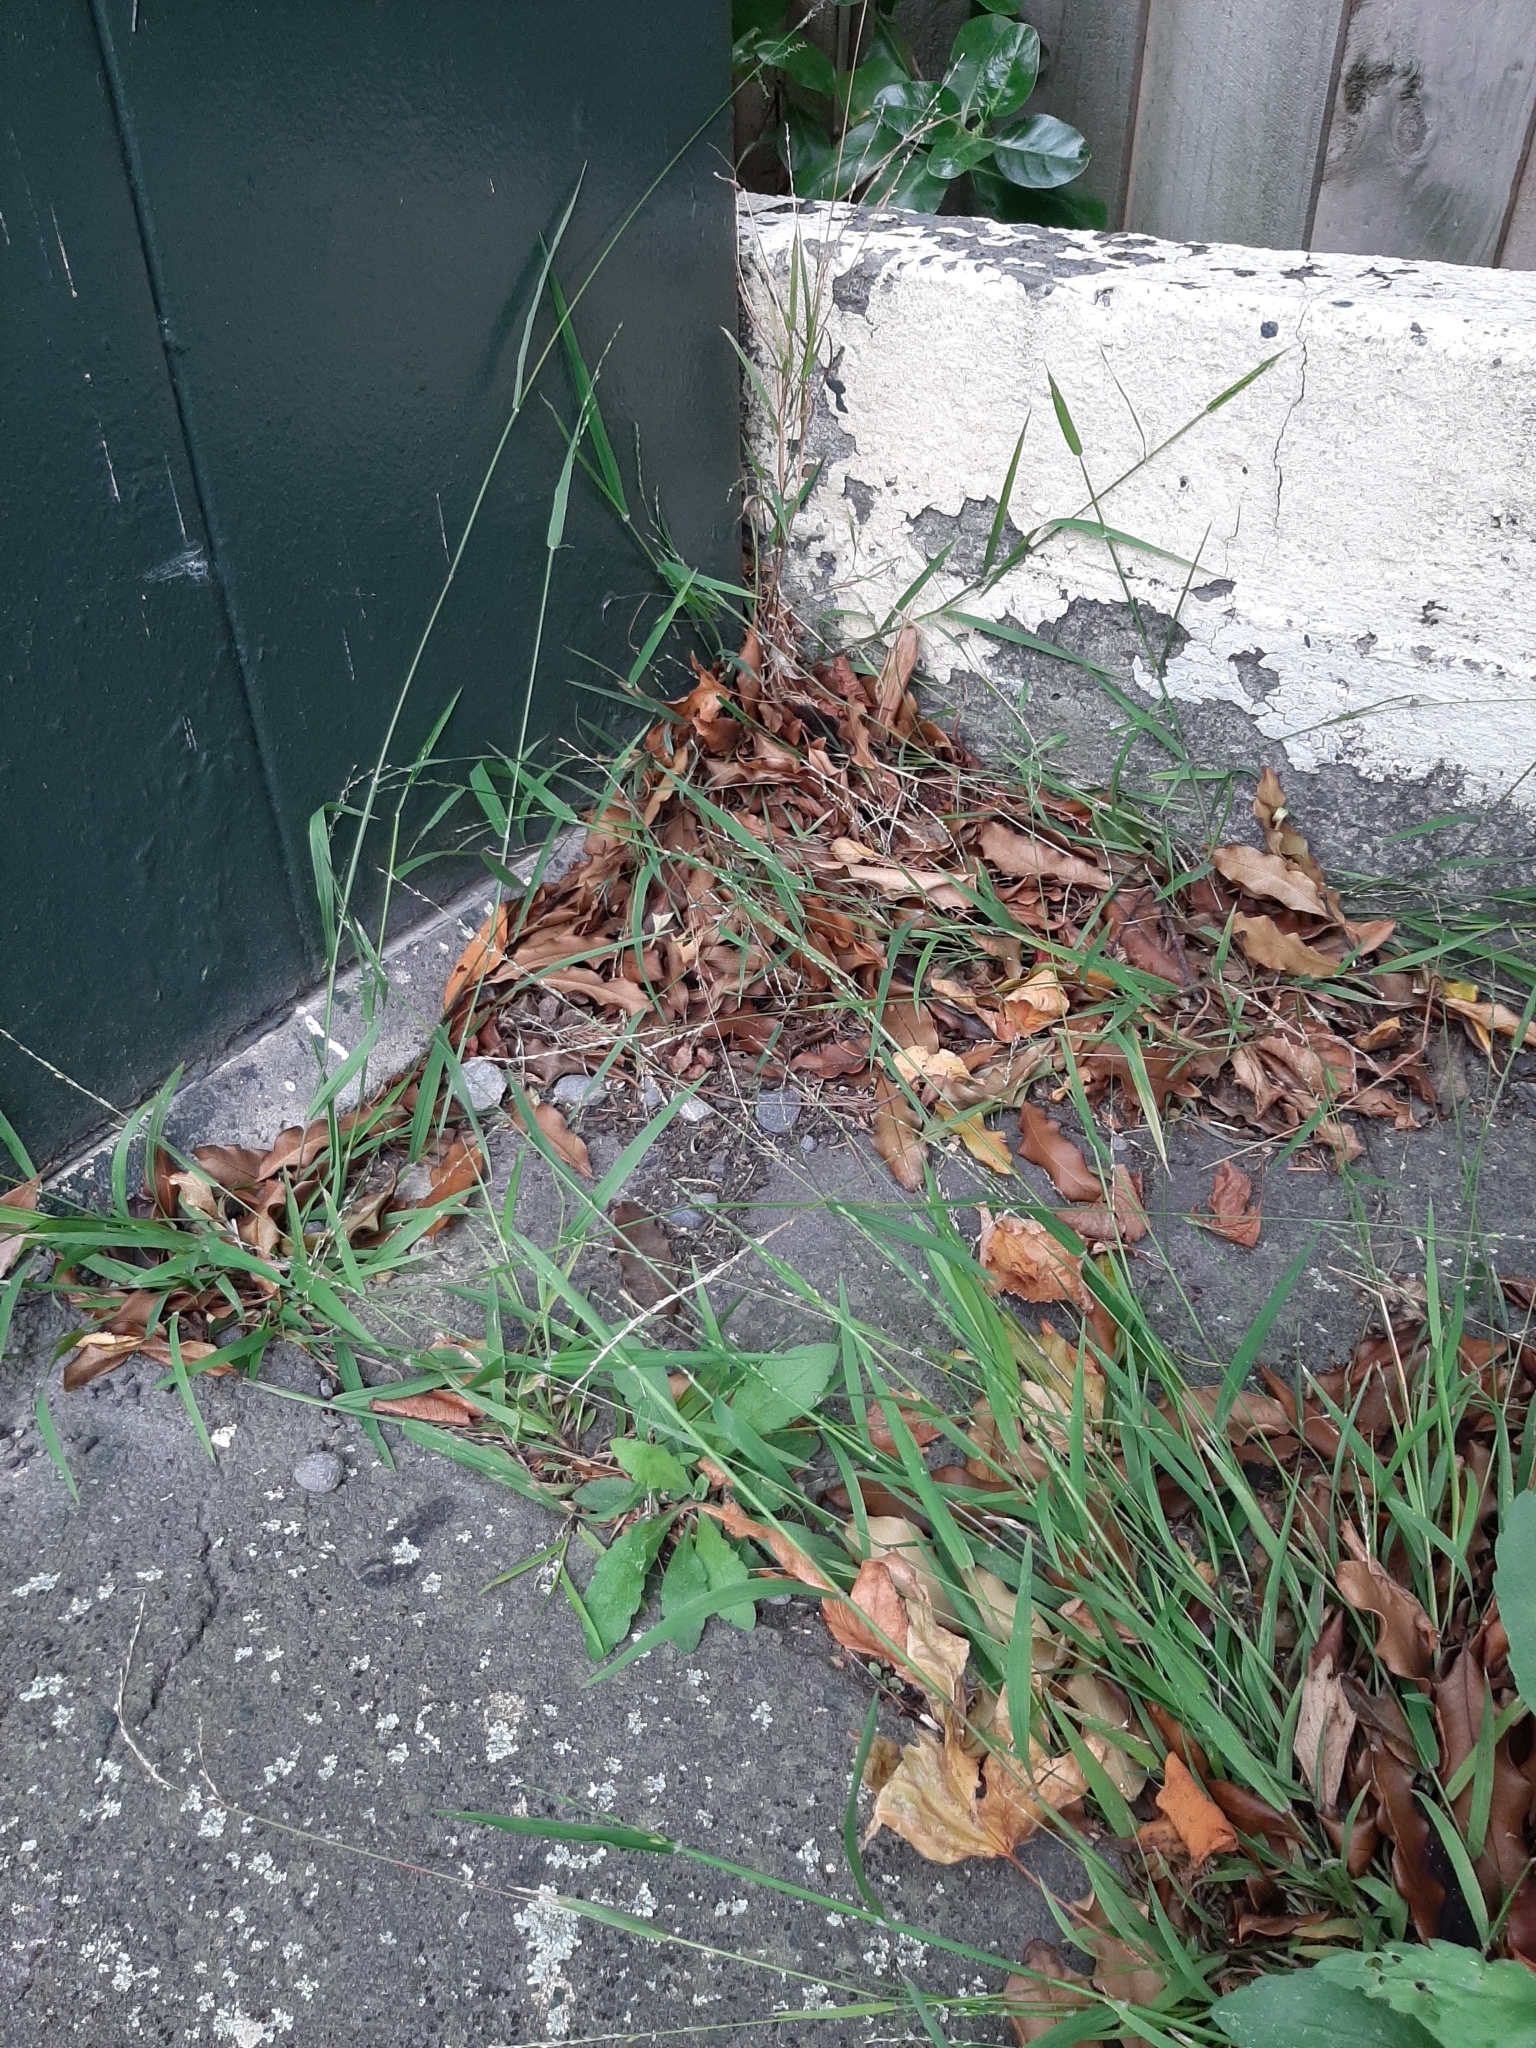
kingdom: Plantae
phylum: Tracheophyta
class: Liliopsida
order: Poales
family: Poaceae
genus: Ehrharta
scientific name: Ehrharta erecta
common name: Panic veldtgrass
